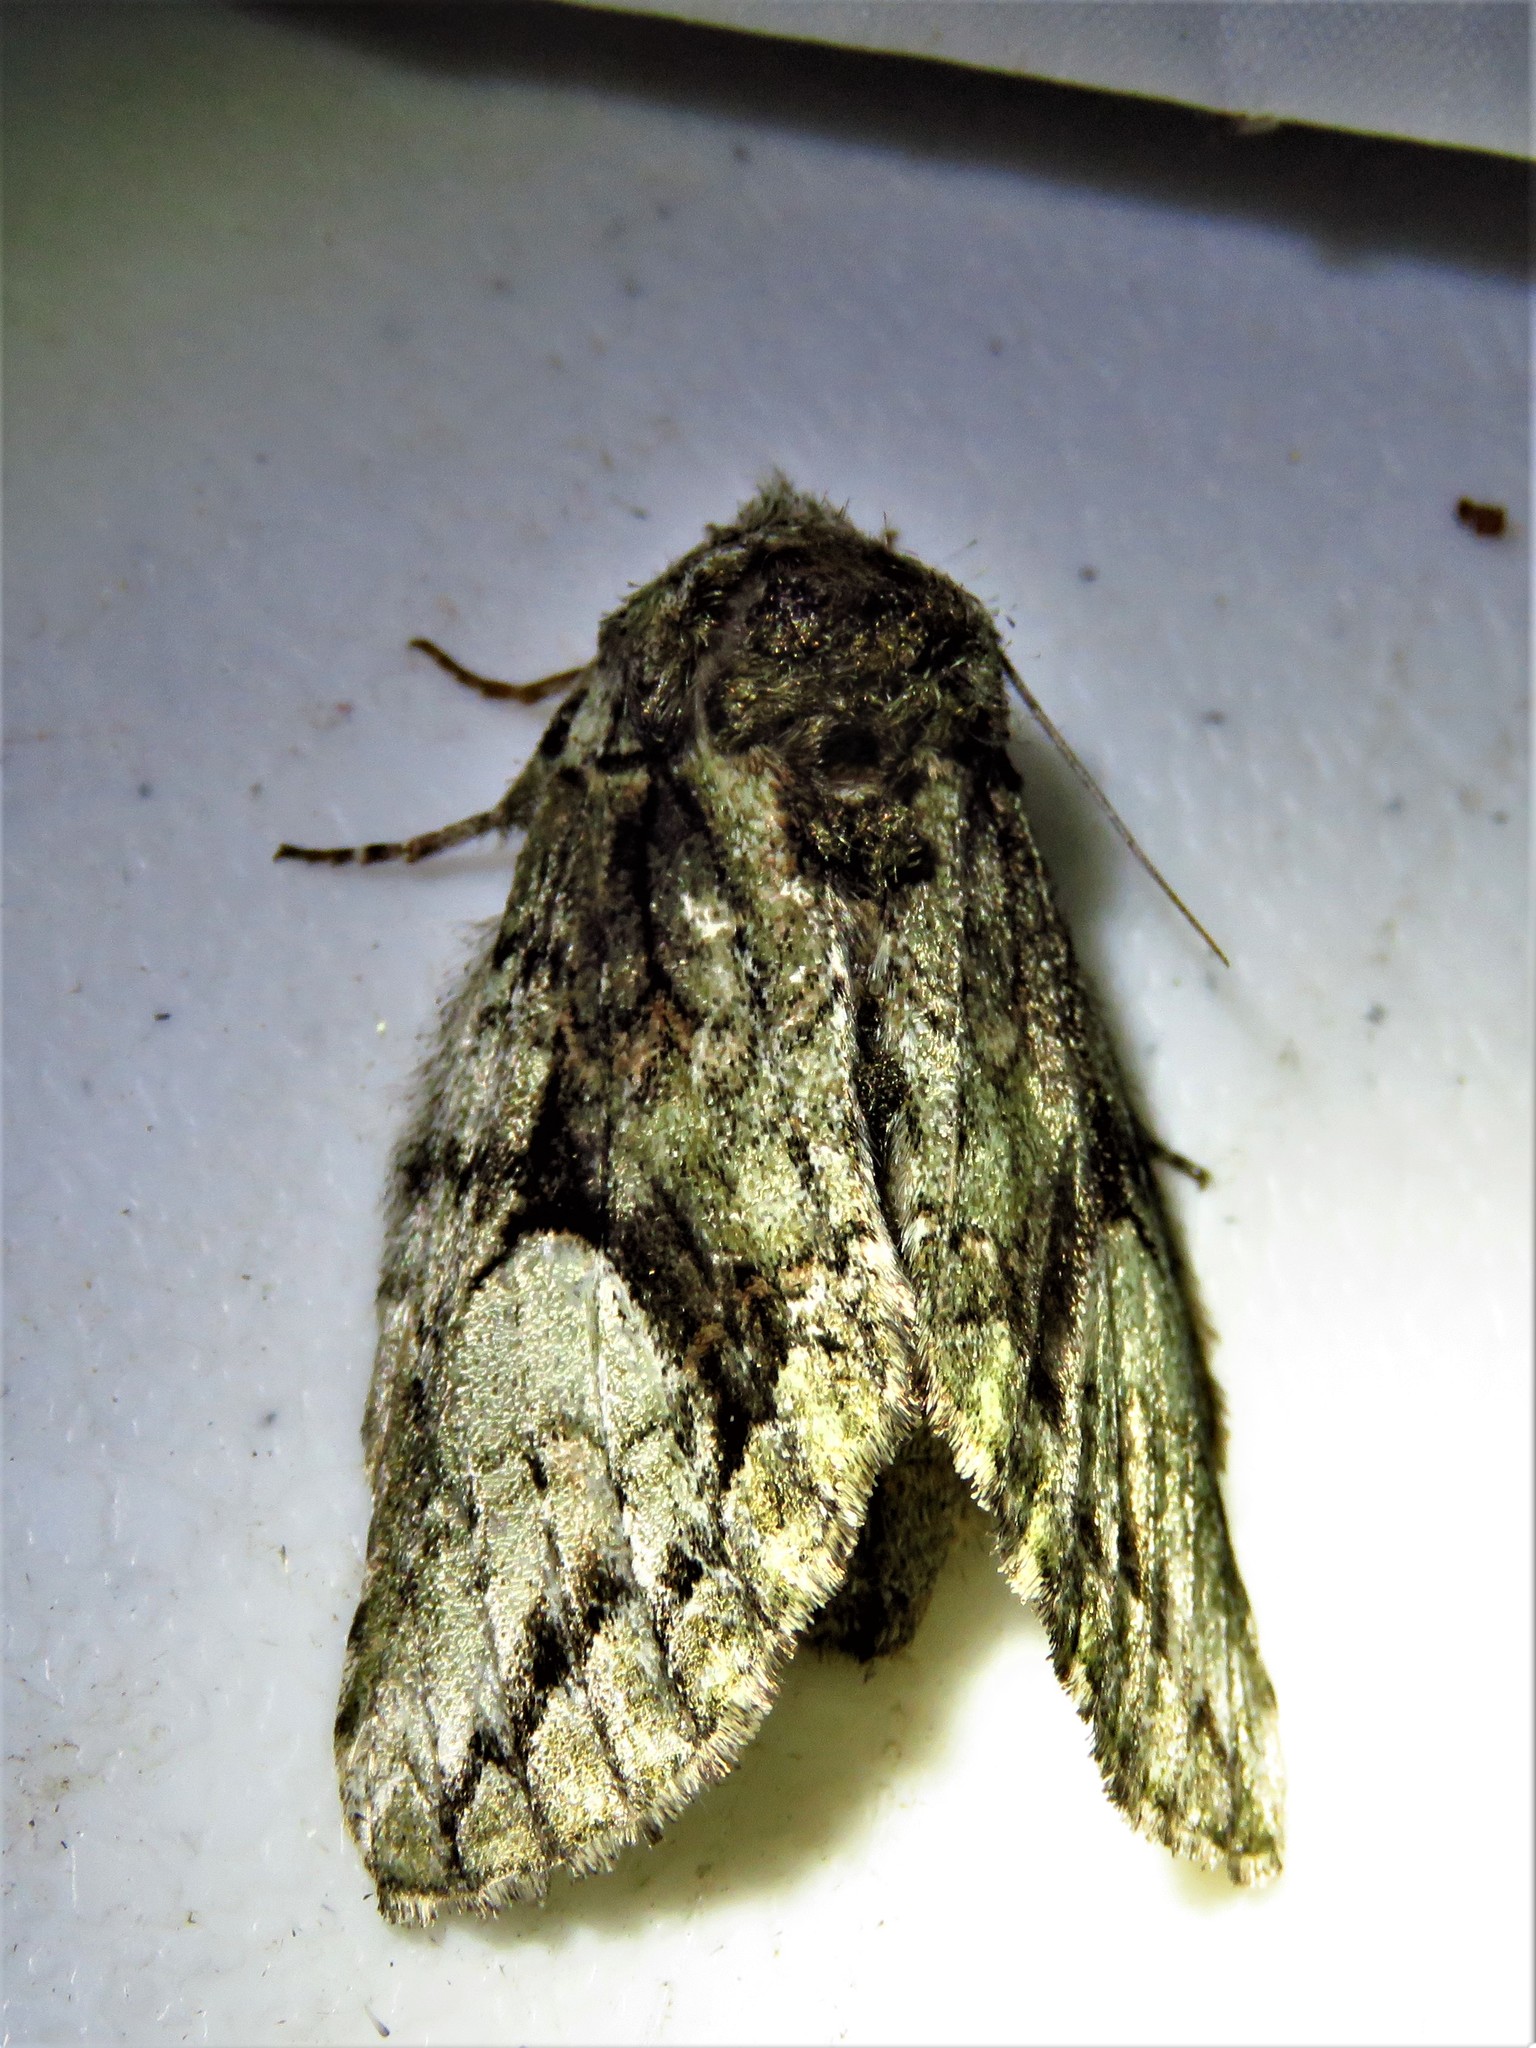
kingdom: Animalia
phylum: Arthropoda
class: Insecta
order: Lepidoptera
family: Notodontidae
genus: Heterocampa
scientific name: Heterocampa
